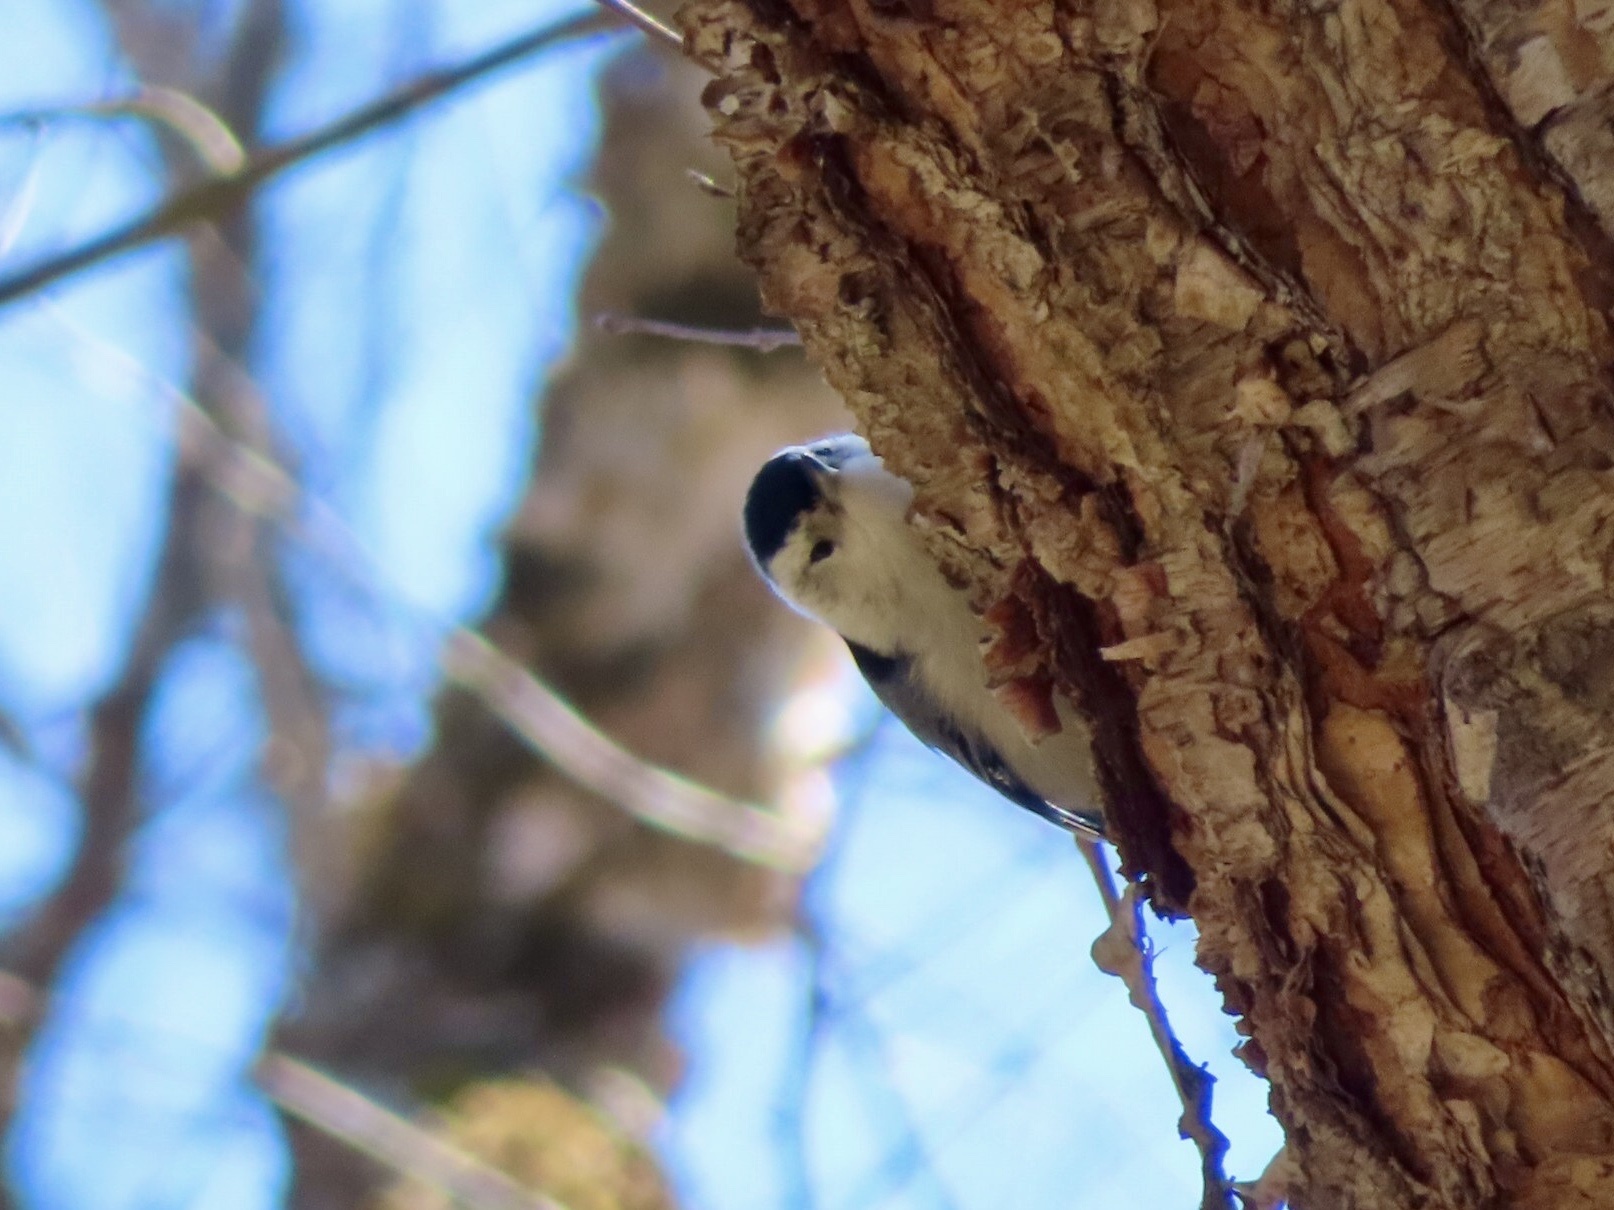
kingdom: Animalia
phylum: Chordata
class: Aves
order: Passeriformes
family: Sittidae
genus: Sitta
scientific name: Sitta carolinensis
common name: White-breasted nuthatch
